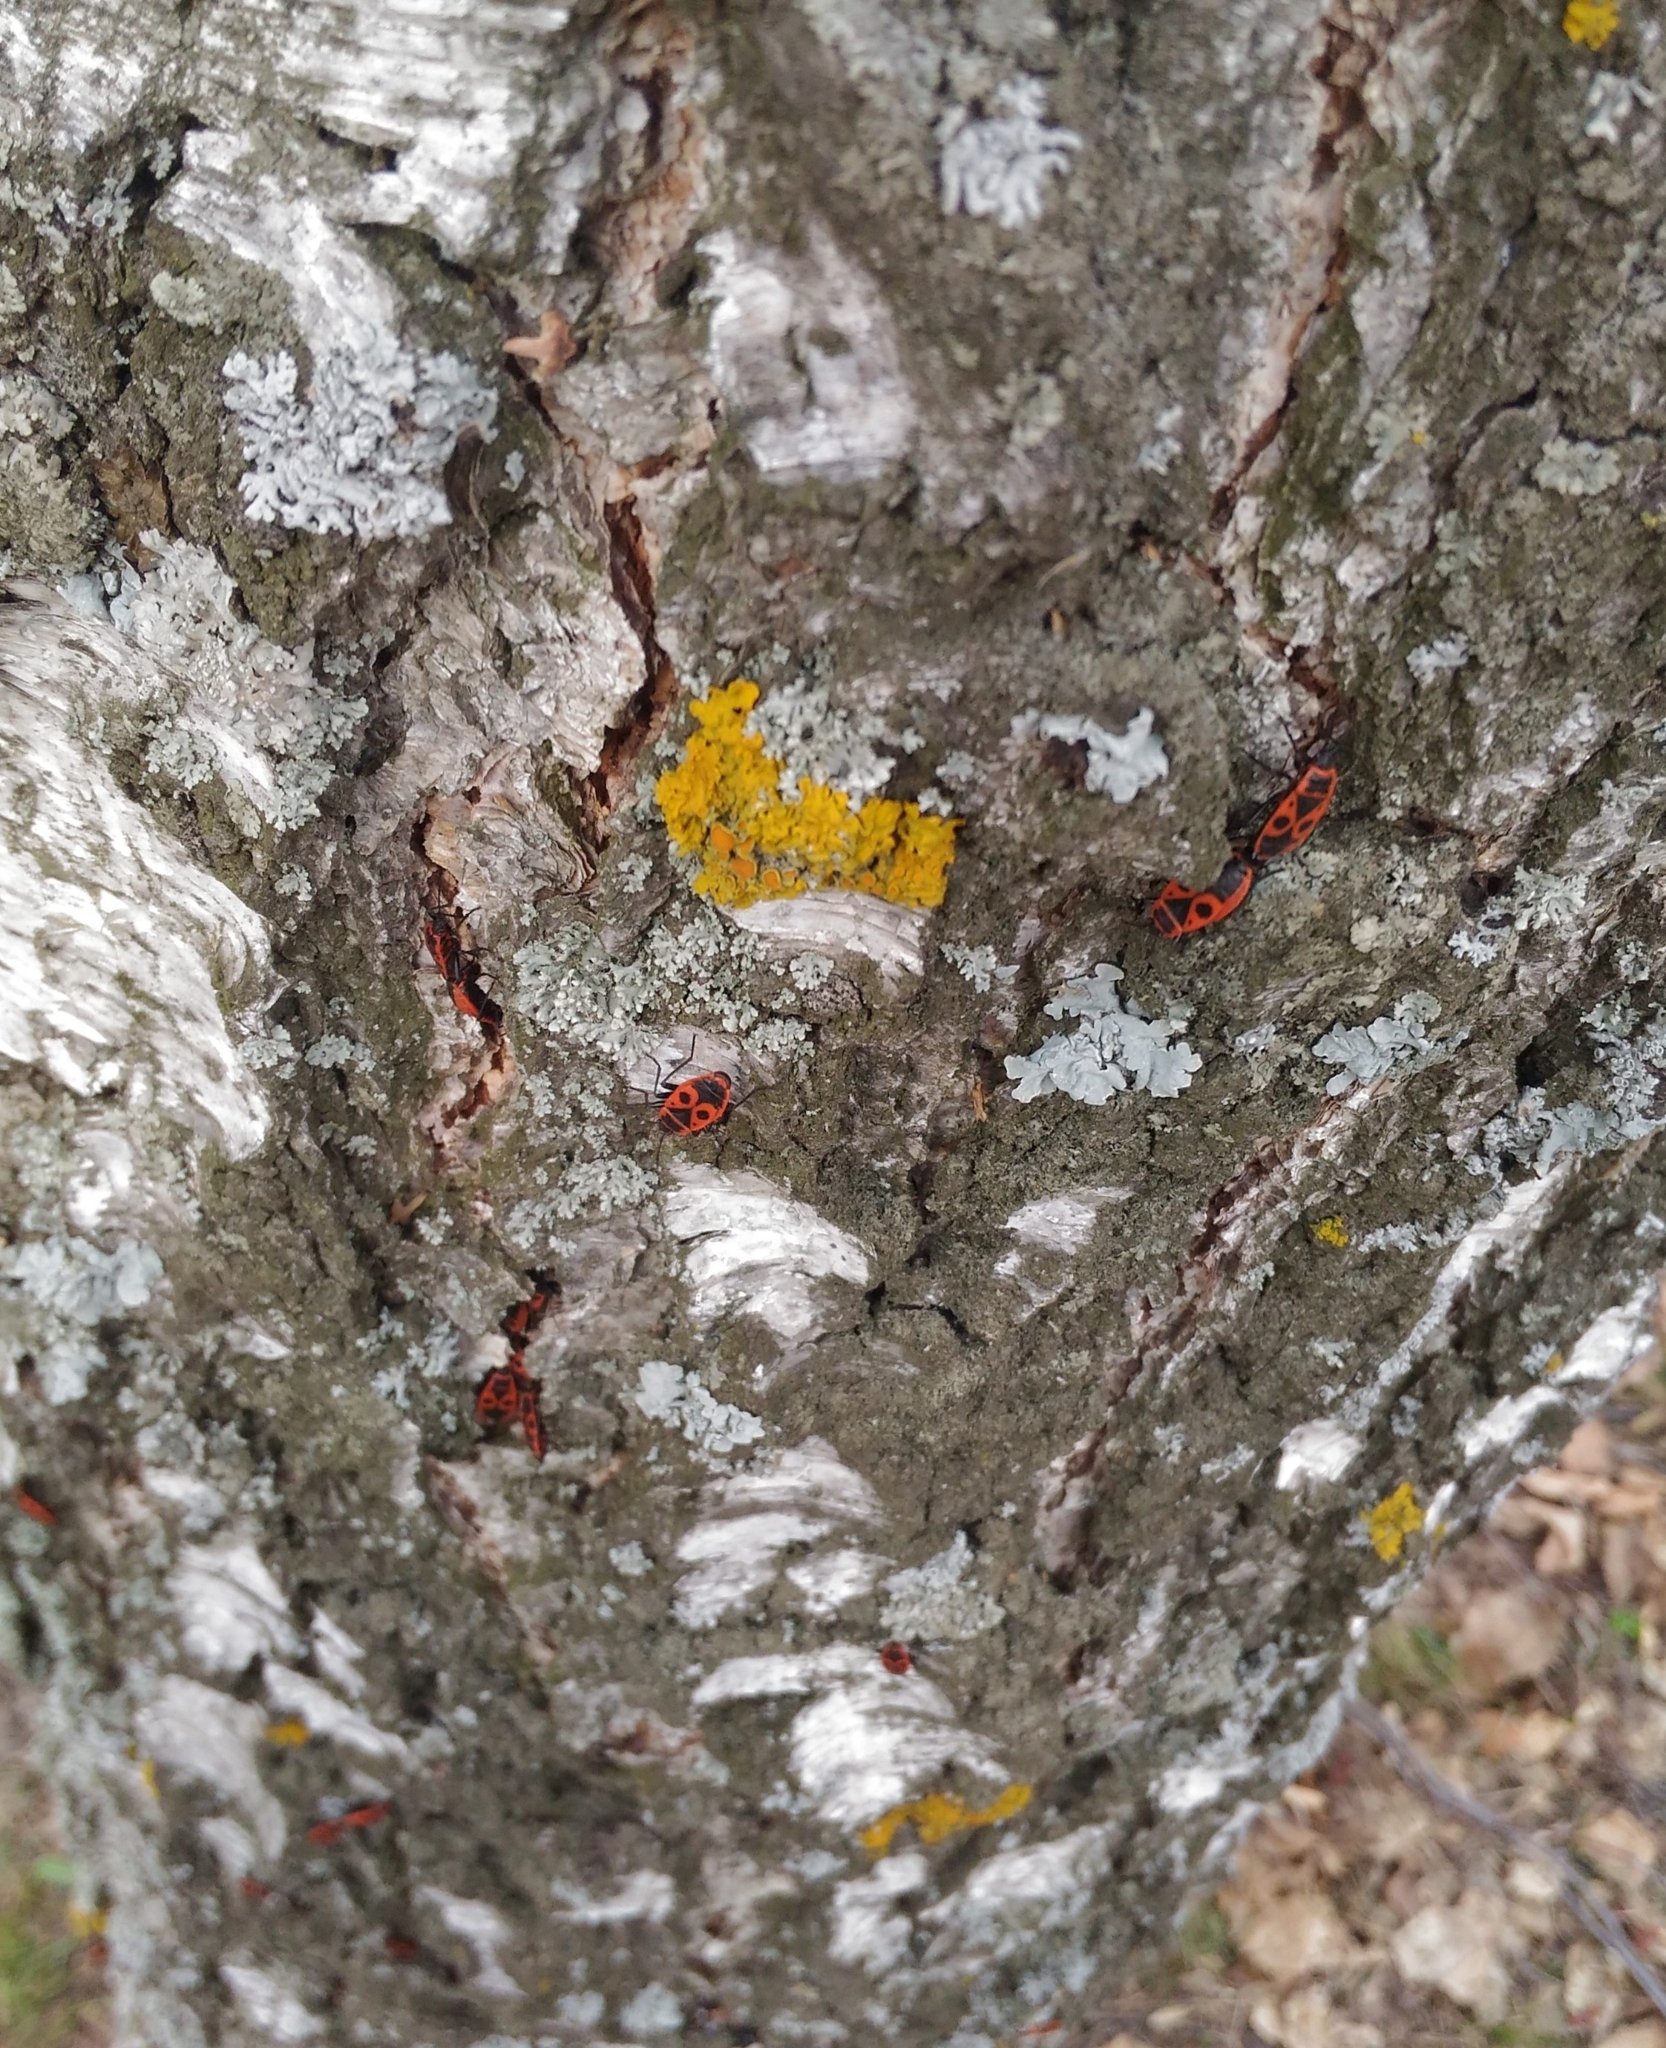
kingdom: Animalia
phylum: Arthropoda
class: Insecta
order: Hemiptera
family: Pyrrhocoridae
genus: Pyrrhocoris
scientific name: Pyrrhocoris apterus
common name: Firebug
